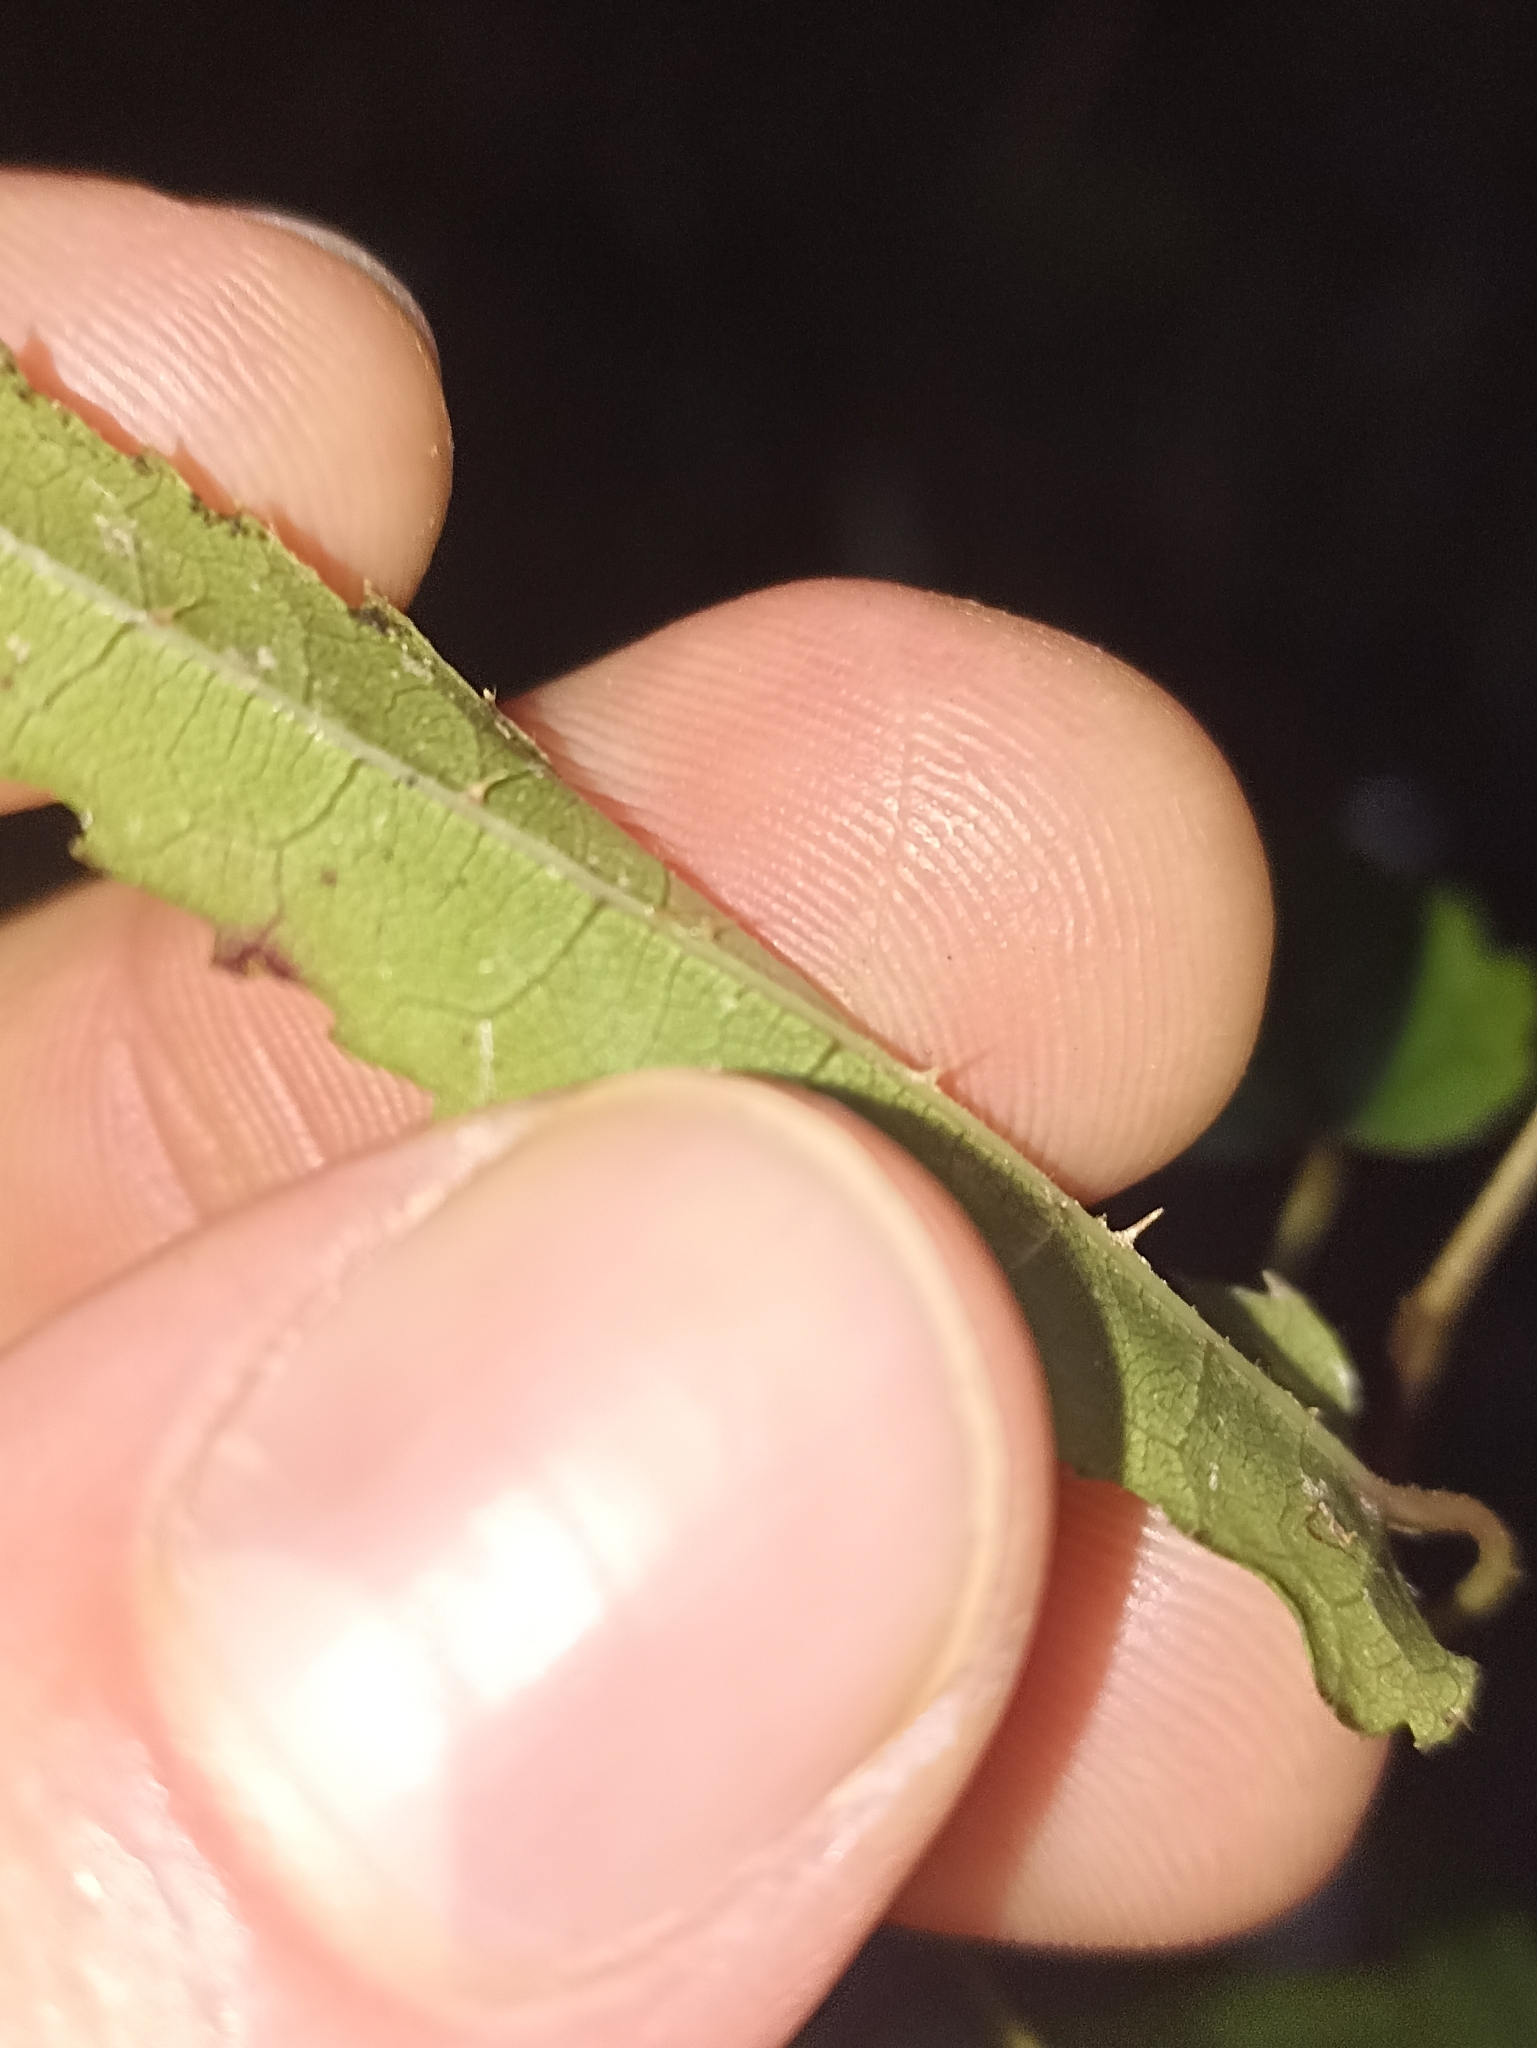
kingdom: Plantae
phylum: Tracheophyta
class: Magnoliopsida
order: Rosales
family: Rosaceae
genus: Rubus
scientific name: Rubus cissoides
